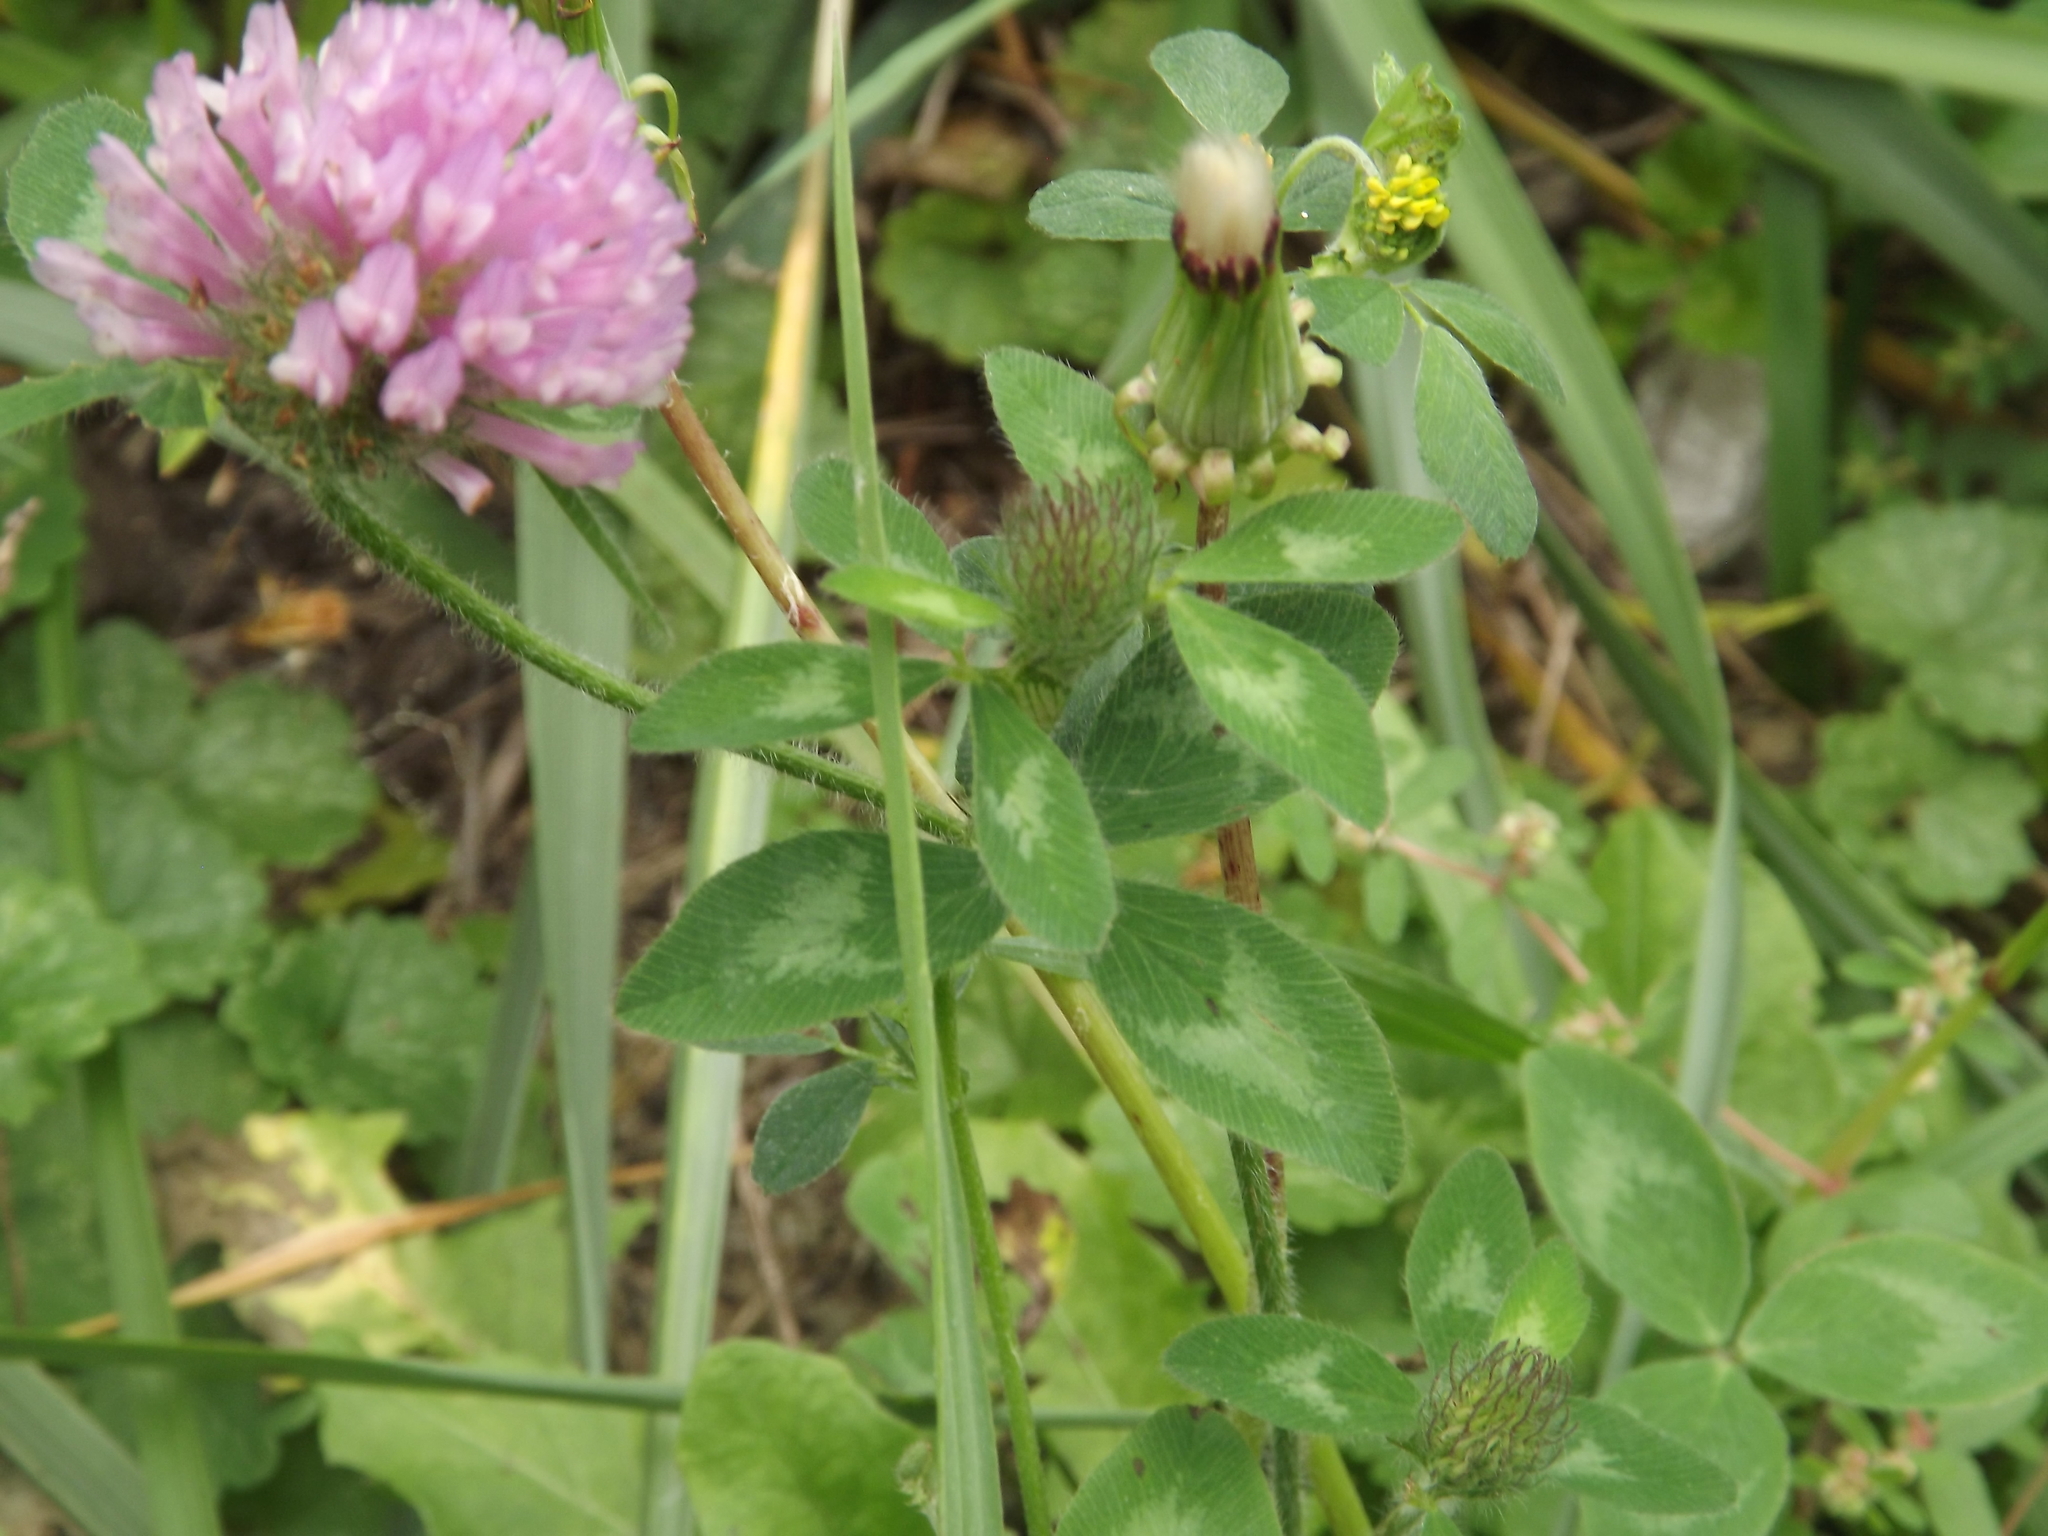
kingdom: Plantae
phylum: Tracheophyta
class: Magnoliopsida
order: Fabales
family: Fabaceae
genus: Trifolium
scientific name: Trifolium pratense
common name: Red clover
